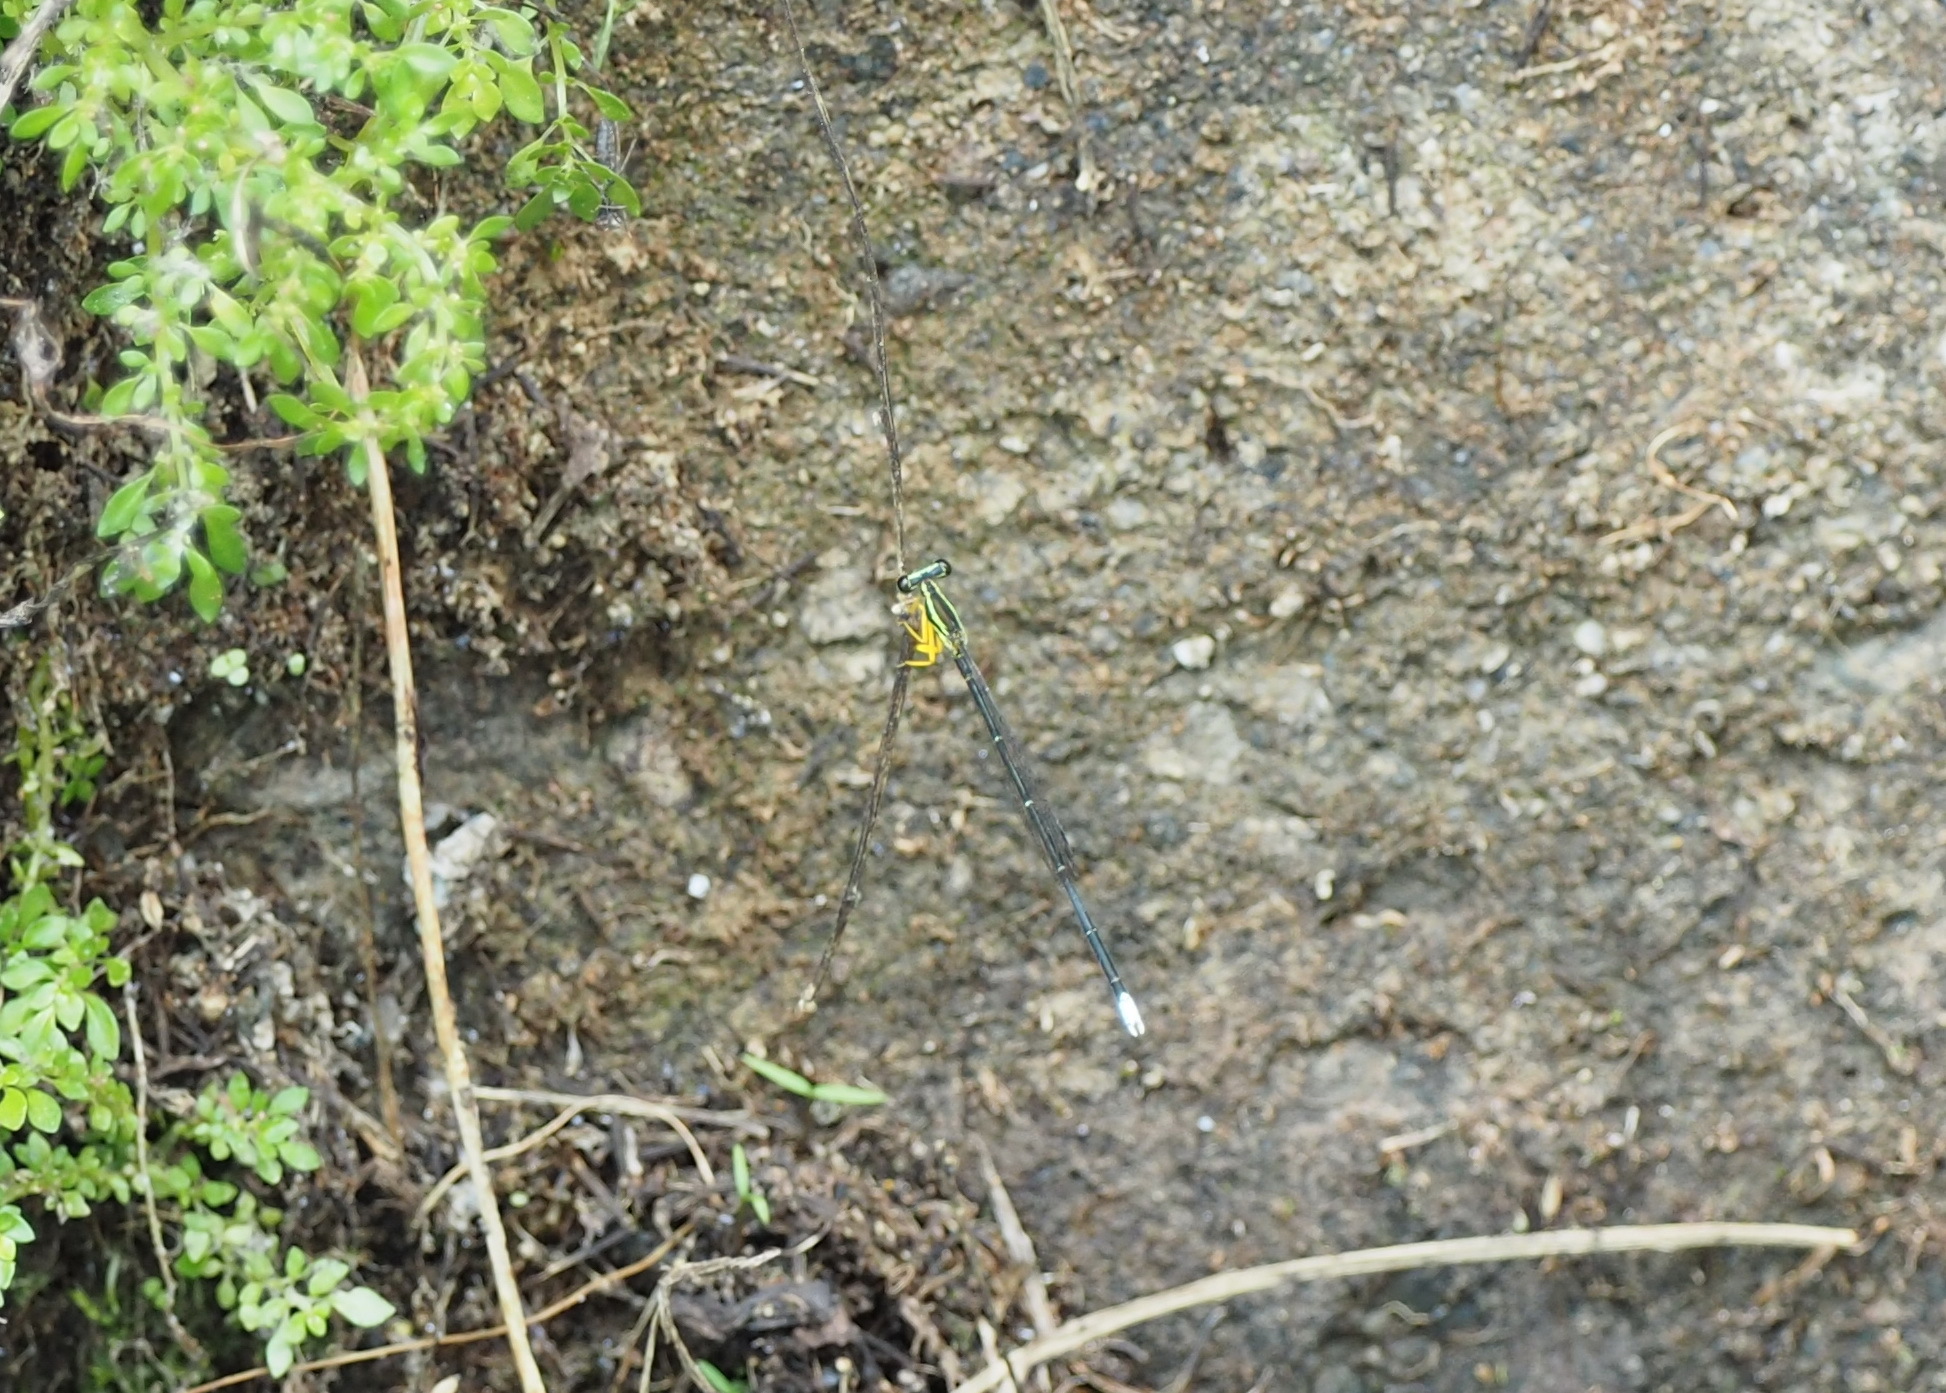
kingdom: Animalia
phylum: Arthropoda
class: Insecta
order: Odonata
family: Platycnemididae
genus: Copera
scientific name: Copera marginipes
